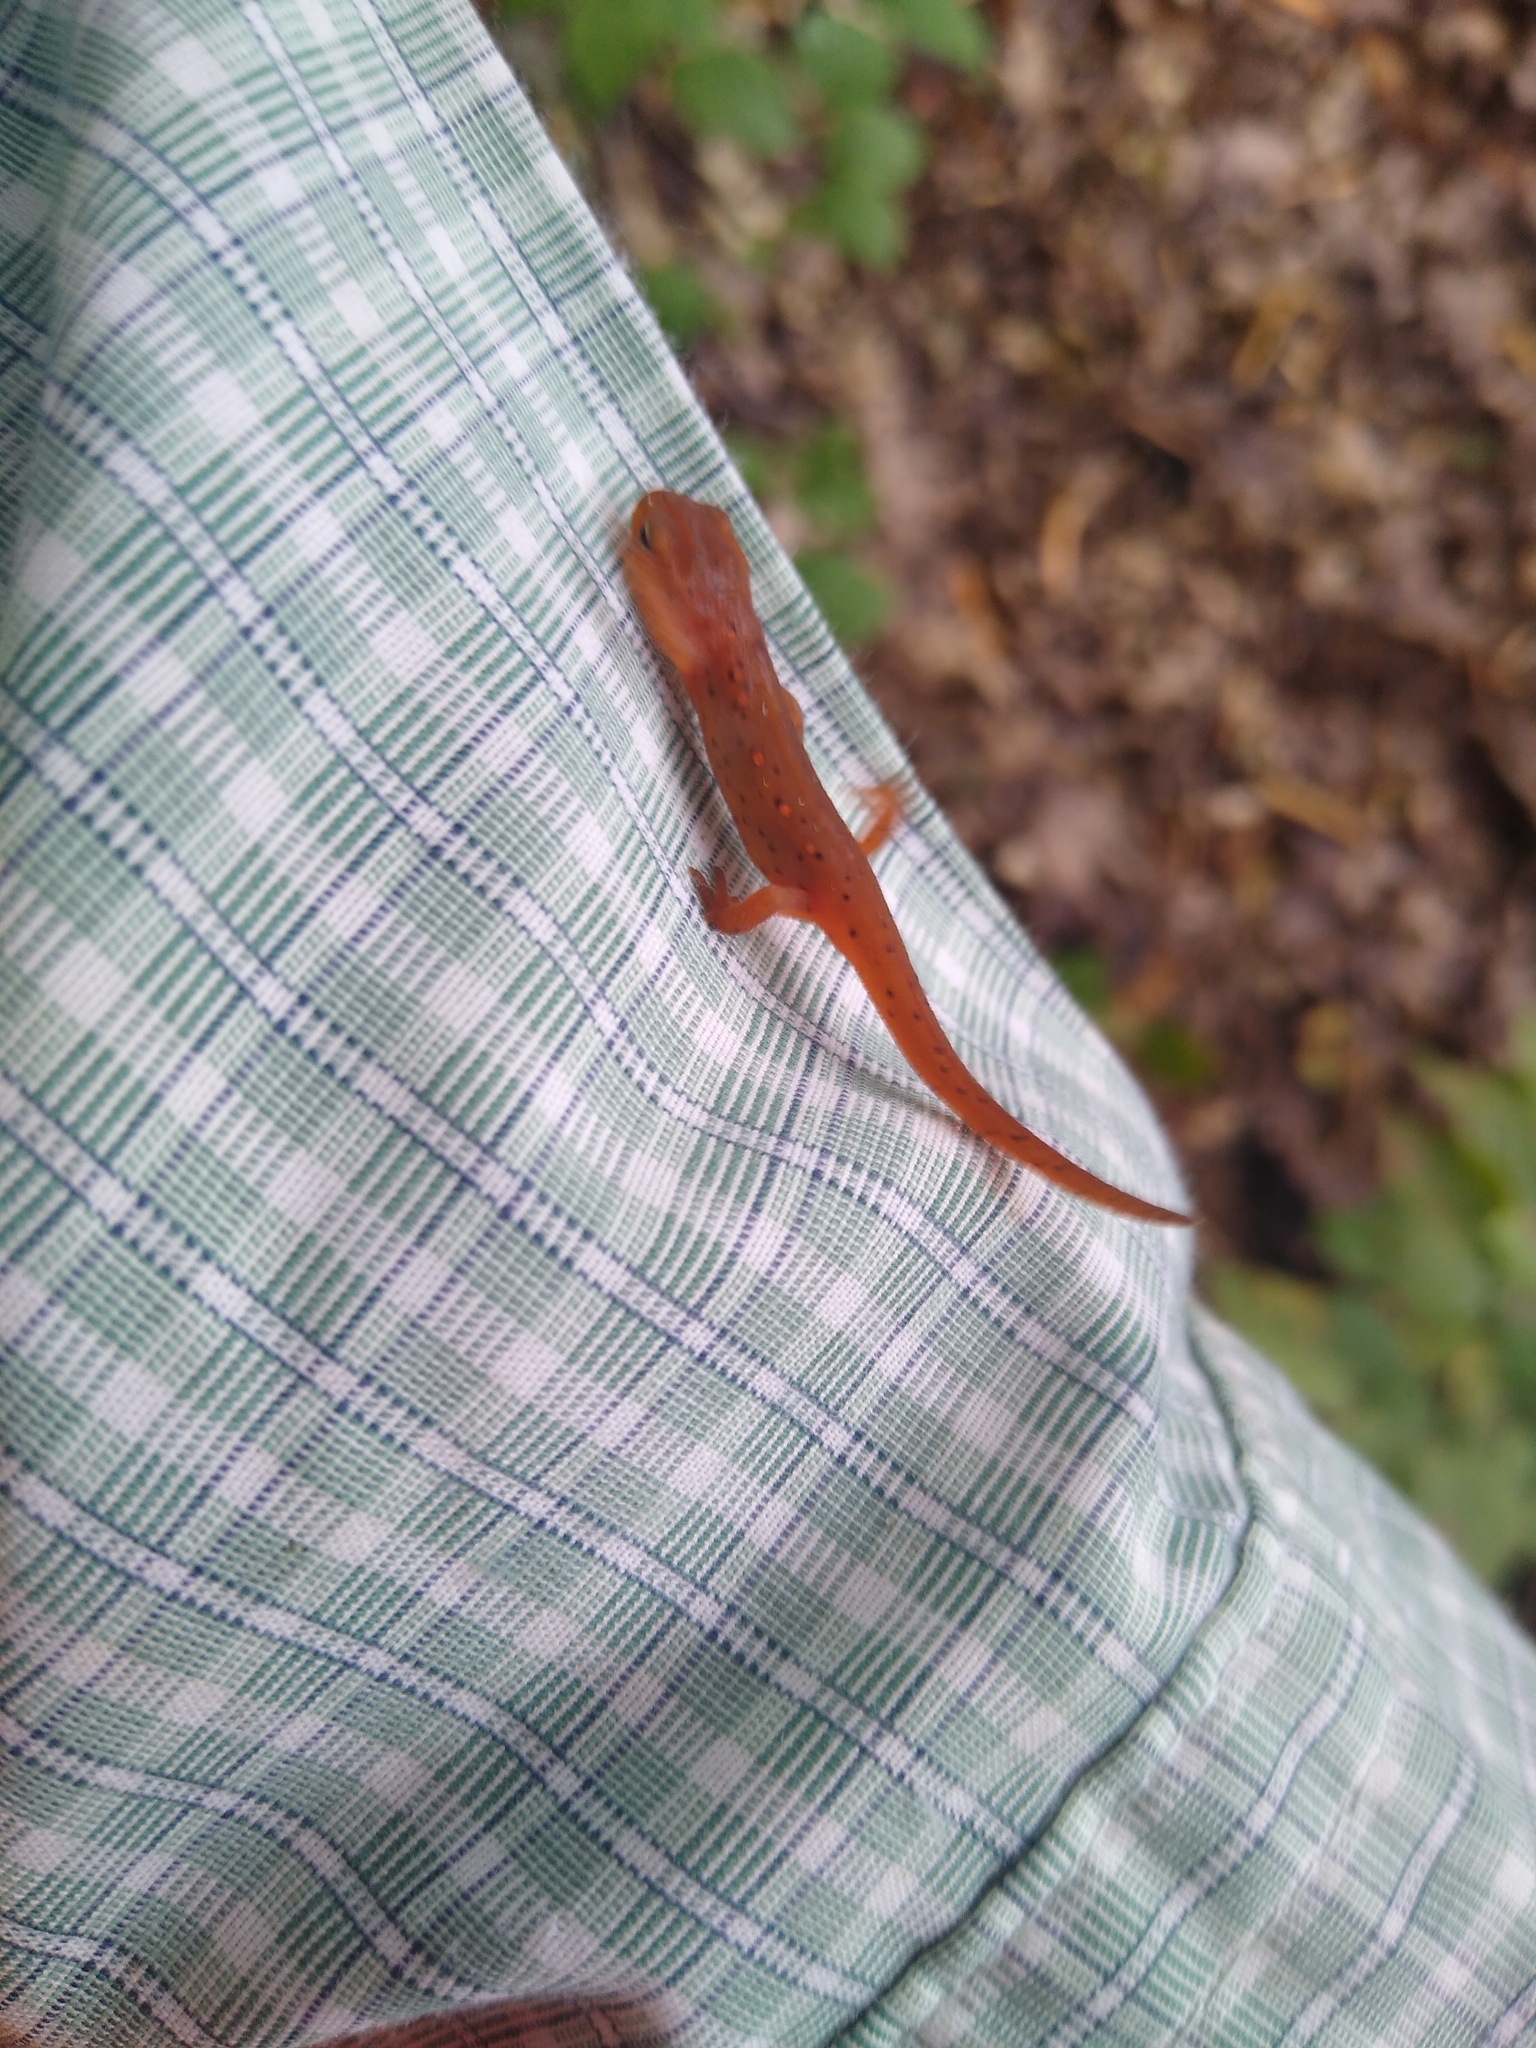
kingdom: Animalia
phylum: Chordata
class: Amphibia
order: Caudata
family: Salamandridae
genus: Notophthalmus
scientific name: Notophthalmus viridescens
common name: Eastern newt
